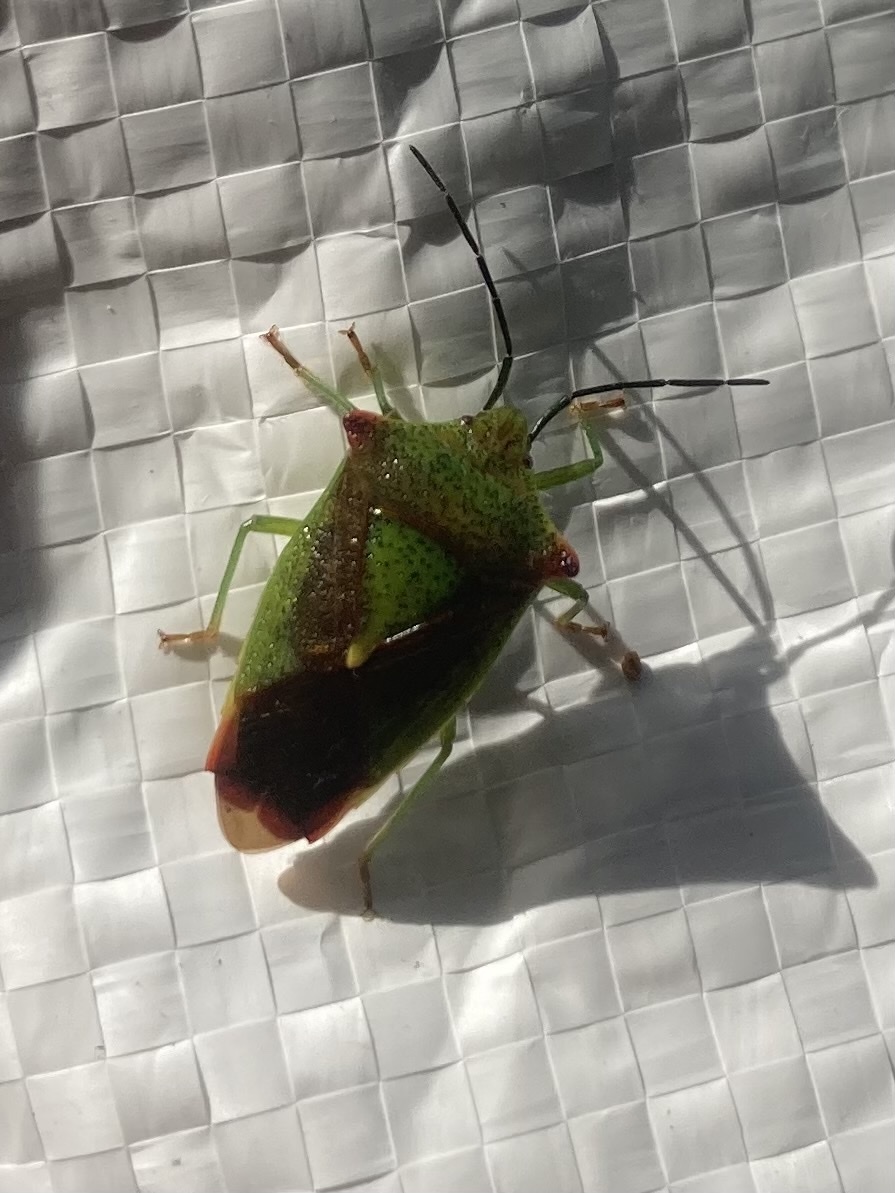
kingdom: Animalia
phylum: Arthropoda
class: Insecta
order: Hemiptera
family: Acanthosomatidae
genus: Acanthosoma
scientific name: Acanthosoma haemorrhoidale
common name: Hawthorn shieldbug
